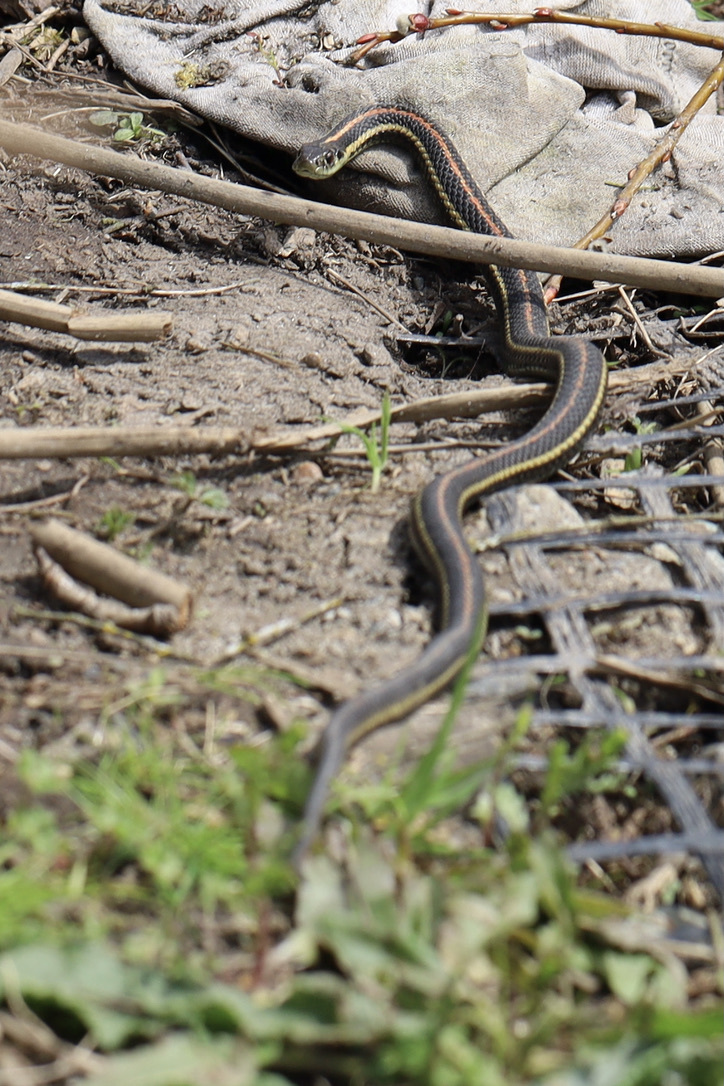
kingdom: Animalia
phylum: Chordata
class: Squamata
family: Colubridae
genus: Thamnophis
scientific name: Thamnophis ordinoides
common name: Northwestern garter snake
